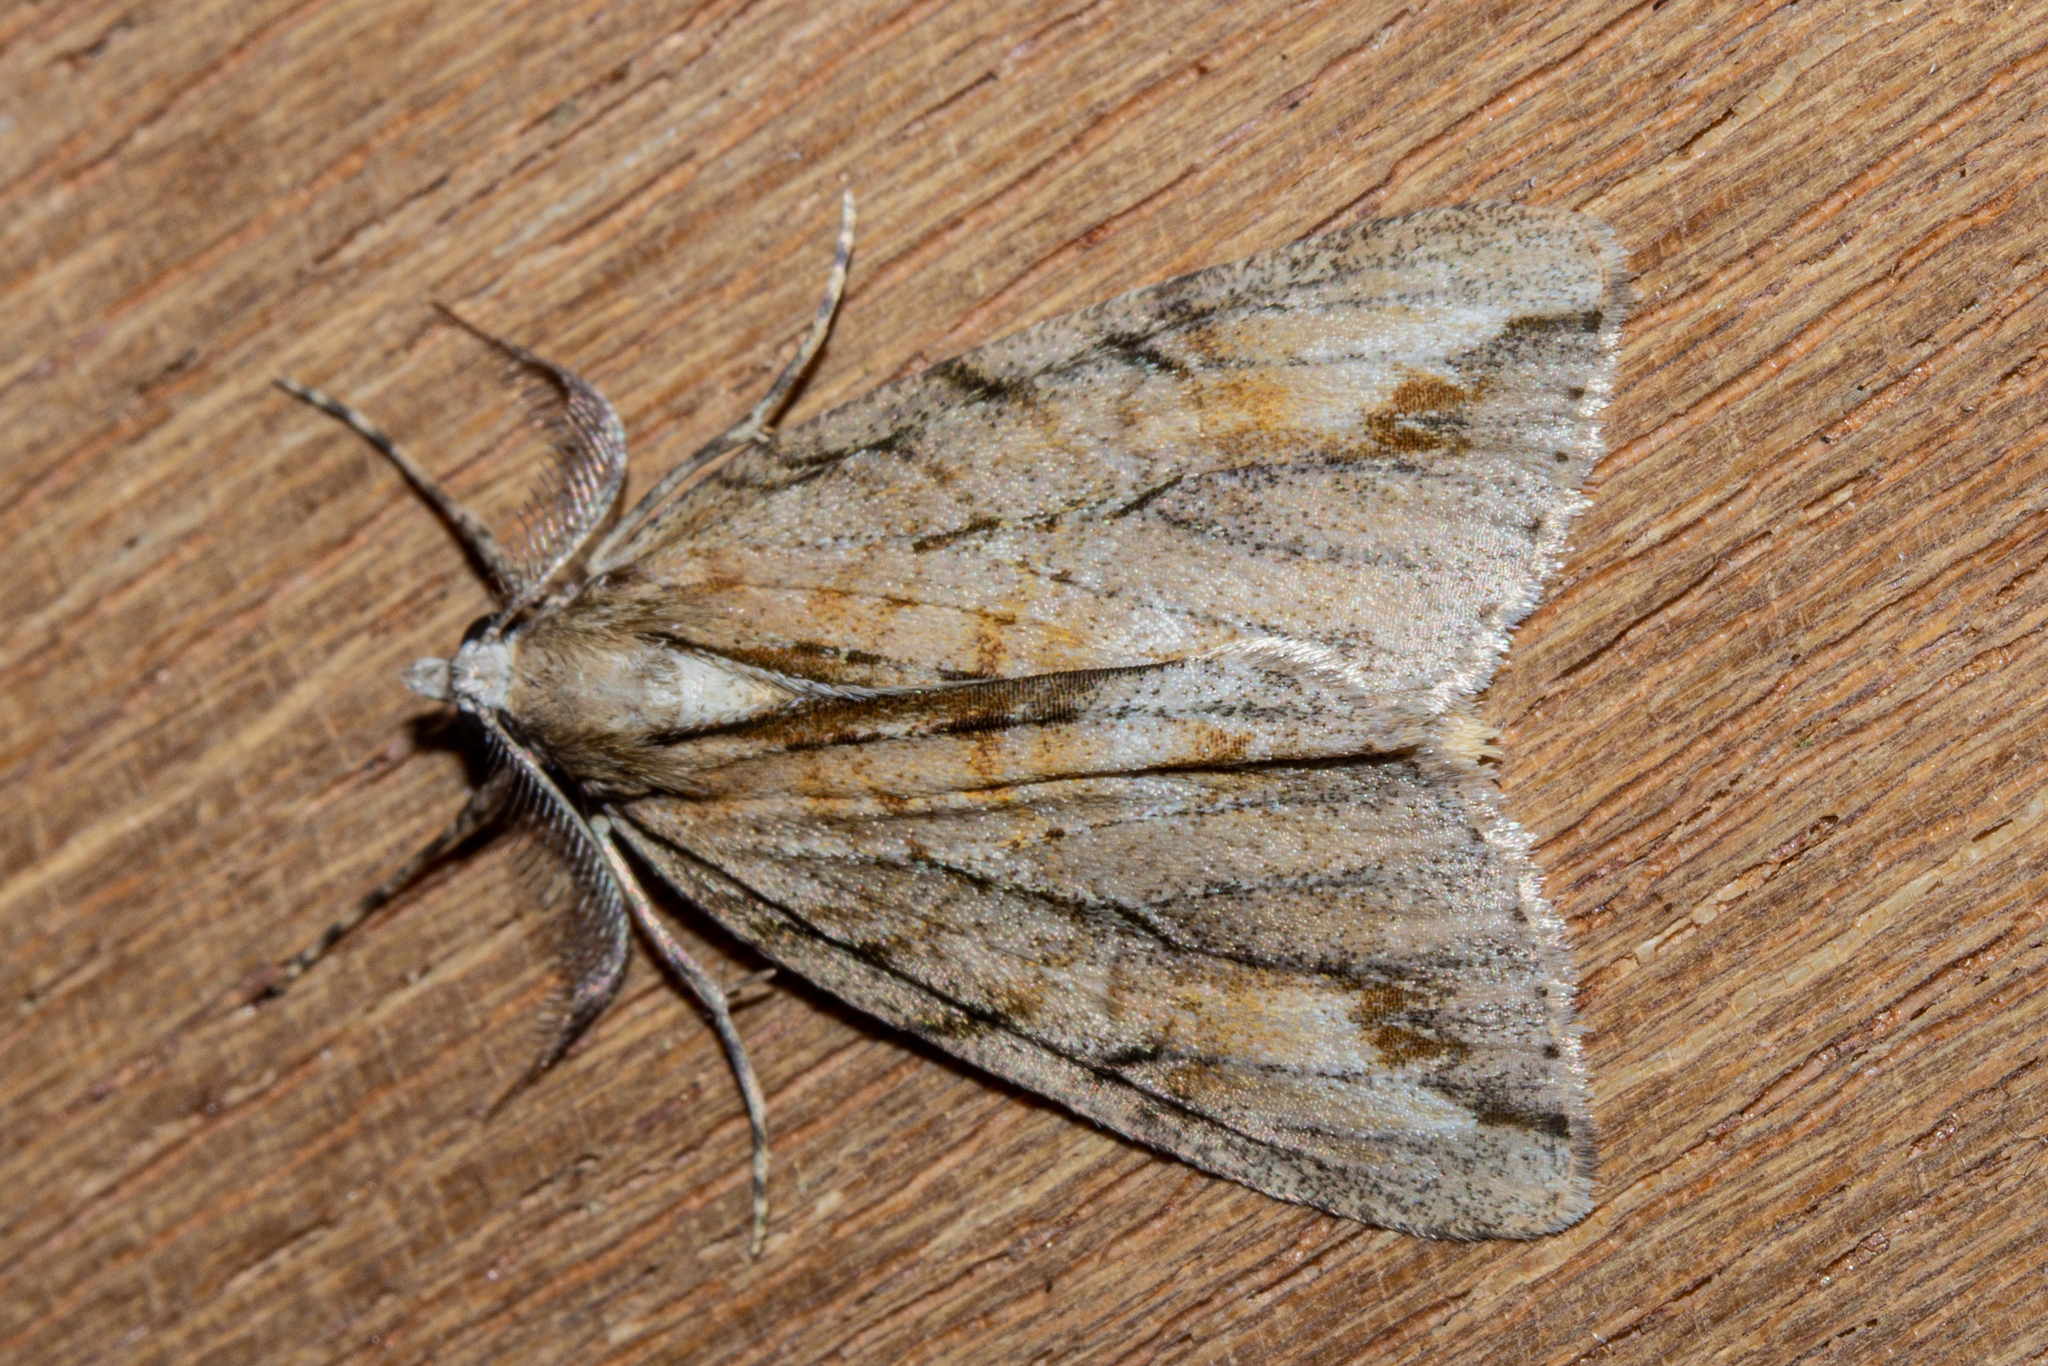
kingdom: Animalia
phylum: Arthropoda
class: Insecta
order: Lepidoptera
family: Geometridae
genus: Pseudocoremia
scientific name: Pseudocoremia lupinata
